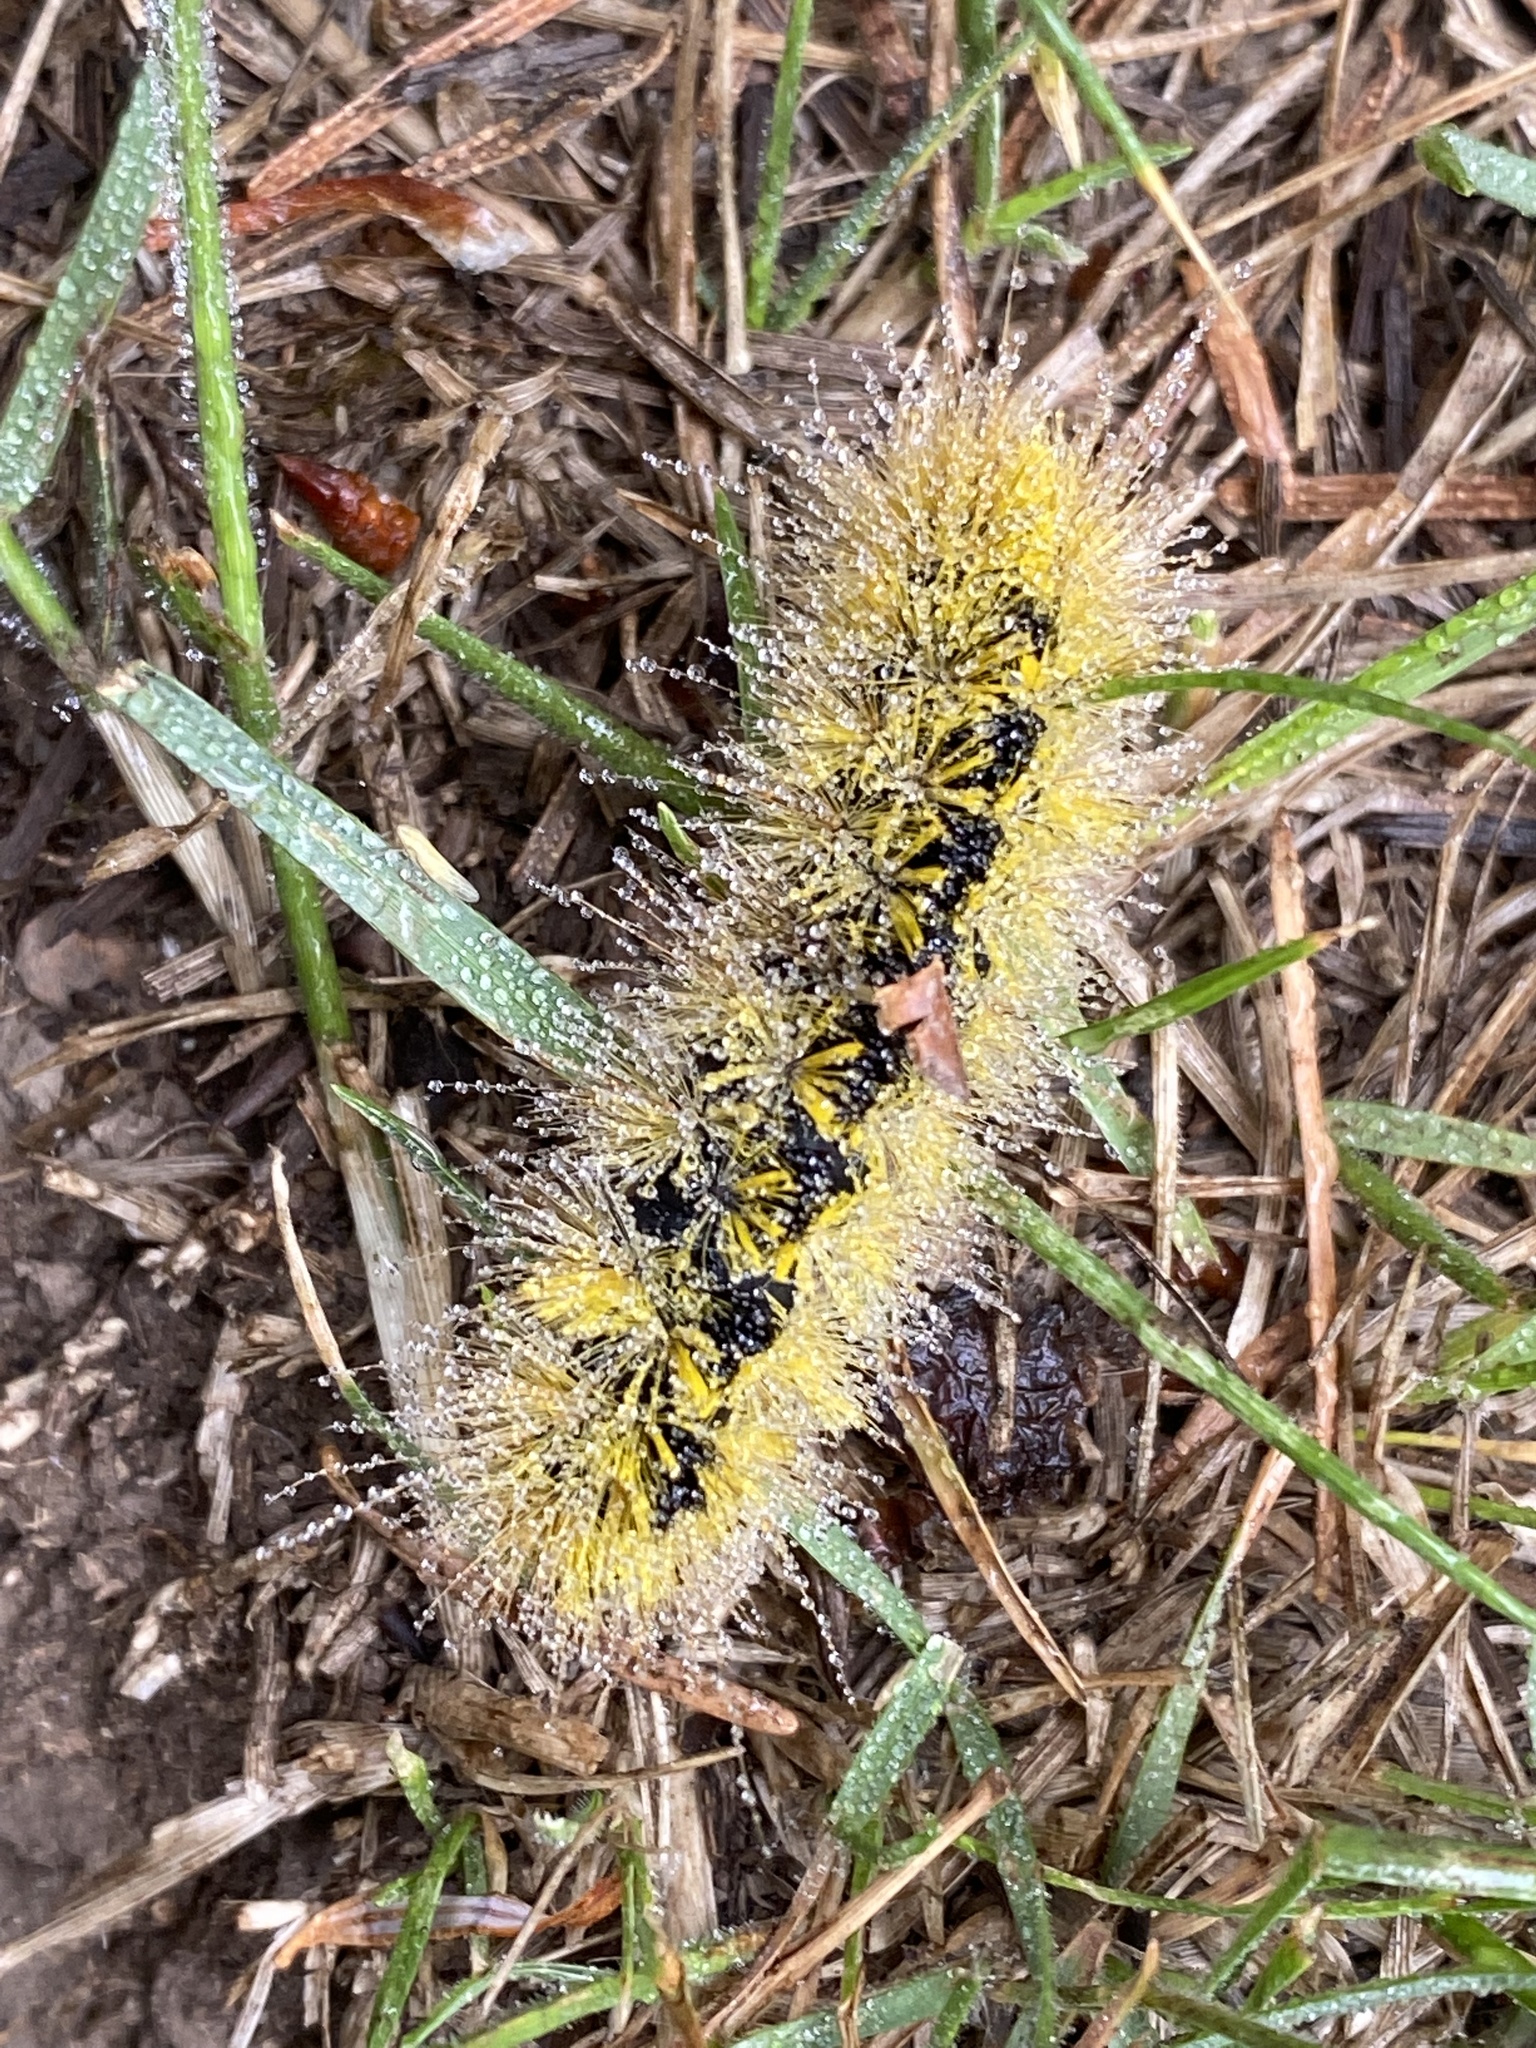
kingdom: Animalia
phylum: Arthropoda
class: Insecta
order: Lepidoptera
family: Erebidae
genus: Lophocampa
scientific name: Lophocampa argentata
